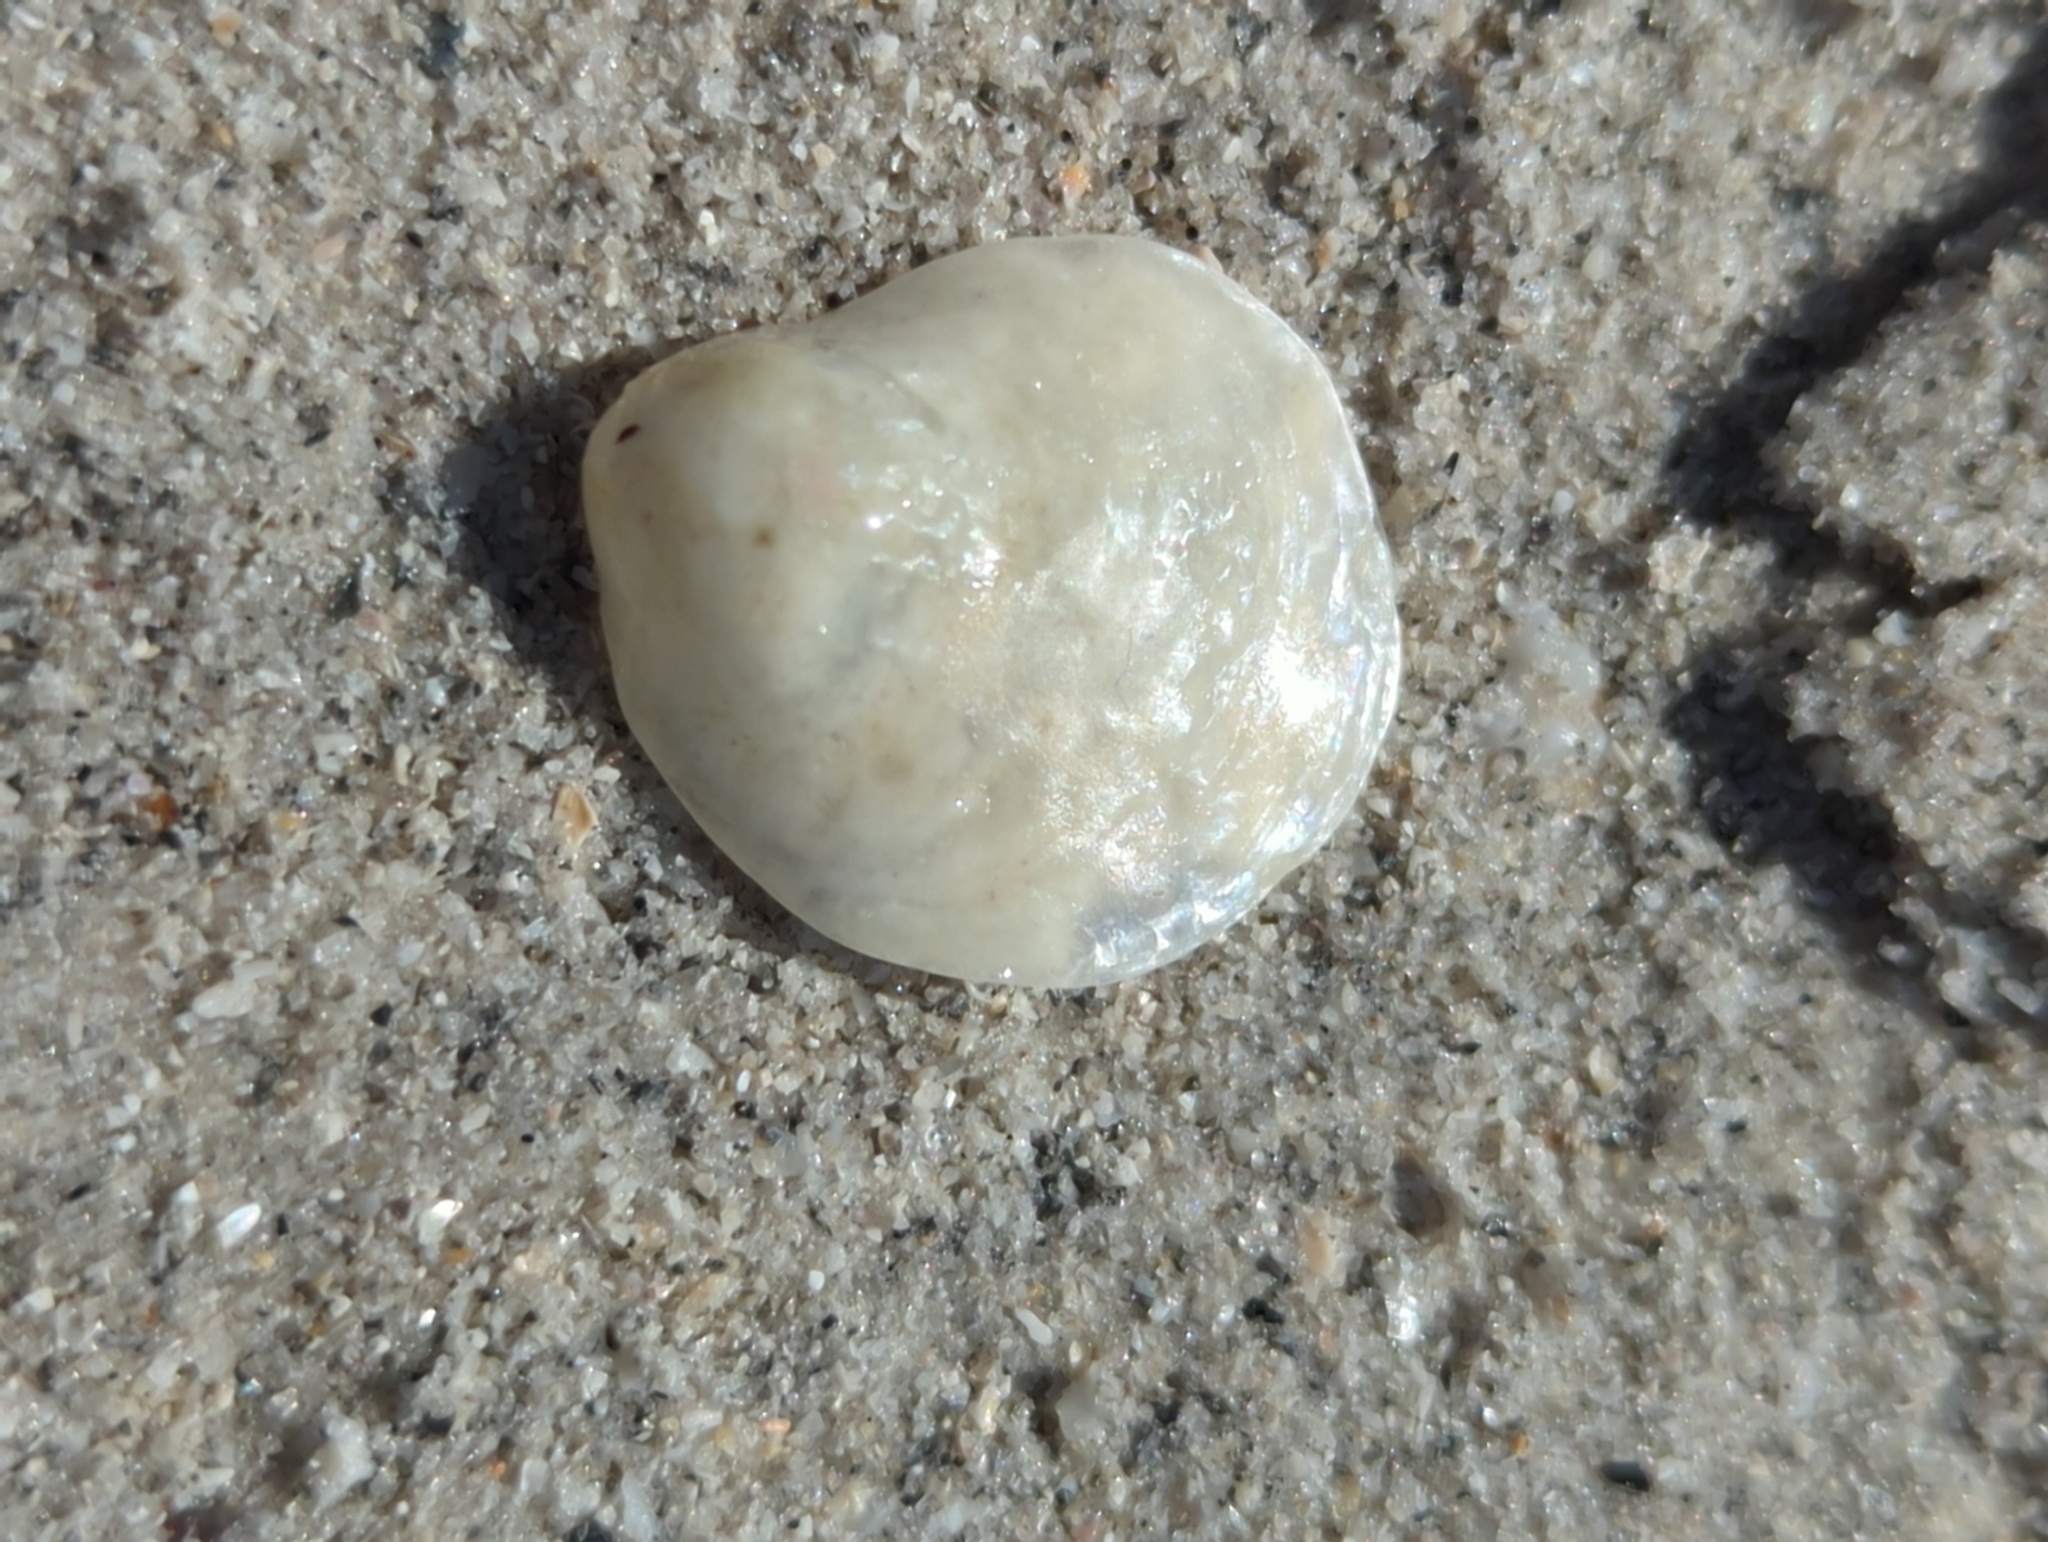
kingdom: Animalia
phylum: Mollusca
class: Bivalvia
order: Pectinida
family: Anomiidae
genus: Anomia
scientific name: Anomia simplex
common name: Common jingle shell
